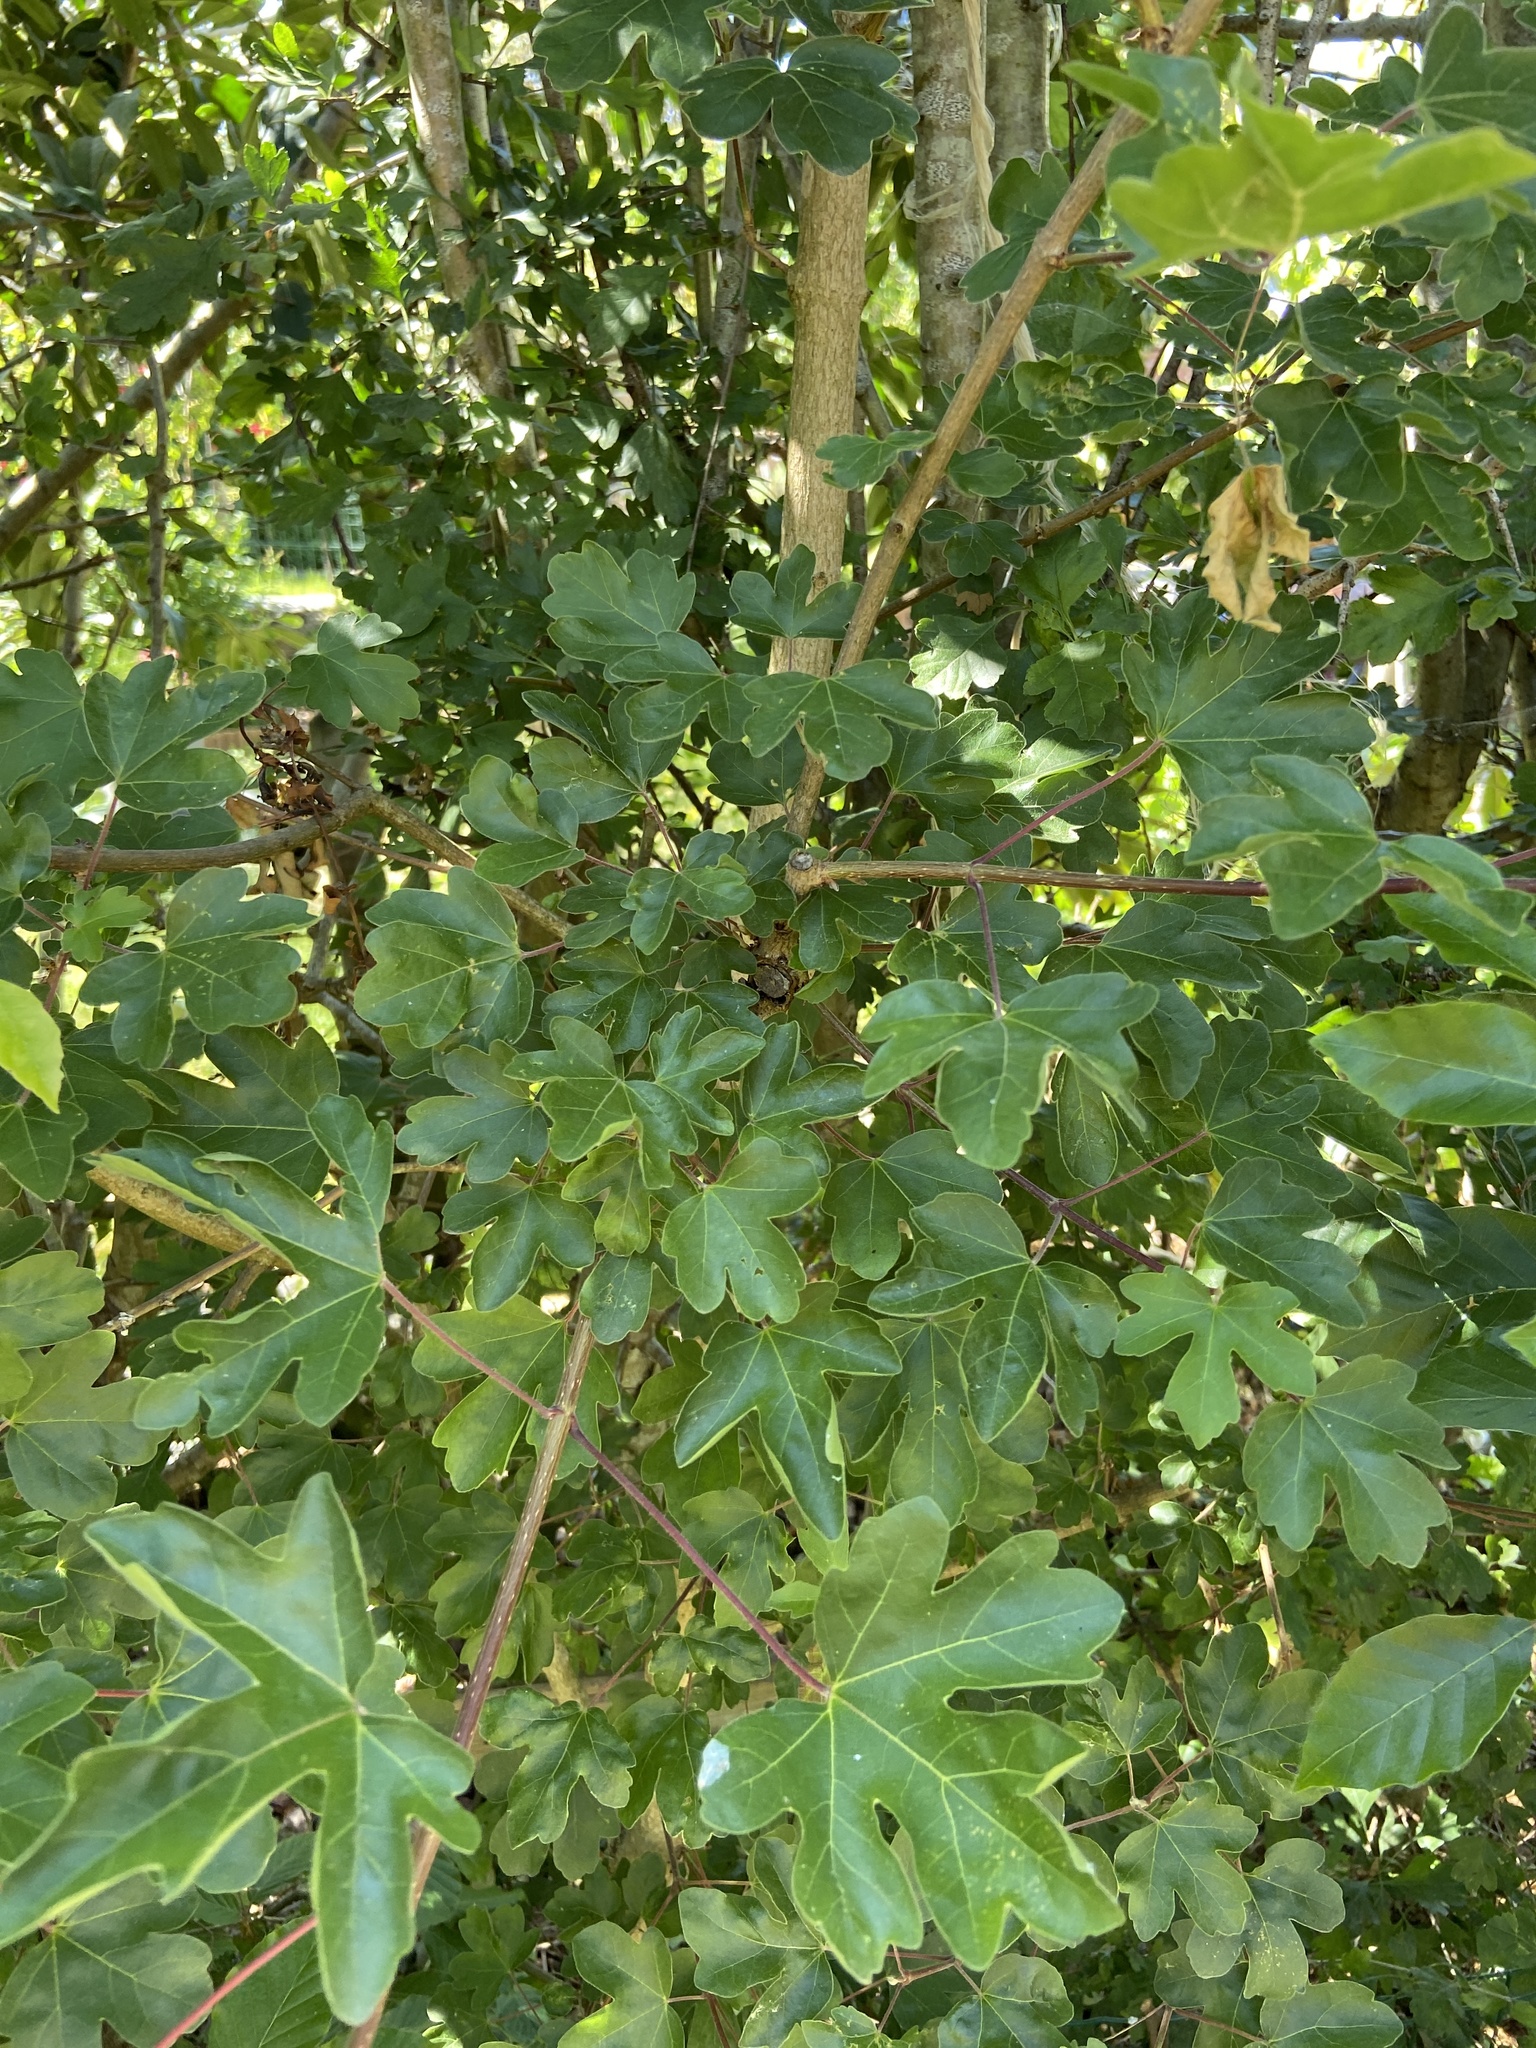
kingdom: Plantae
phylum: Tracheophyta
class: Magnoliopsida
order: Sapindales
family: Sapindaceae
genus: Acer
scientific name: Acer campestre
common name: Field maple
